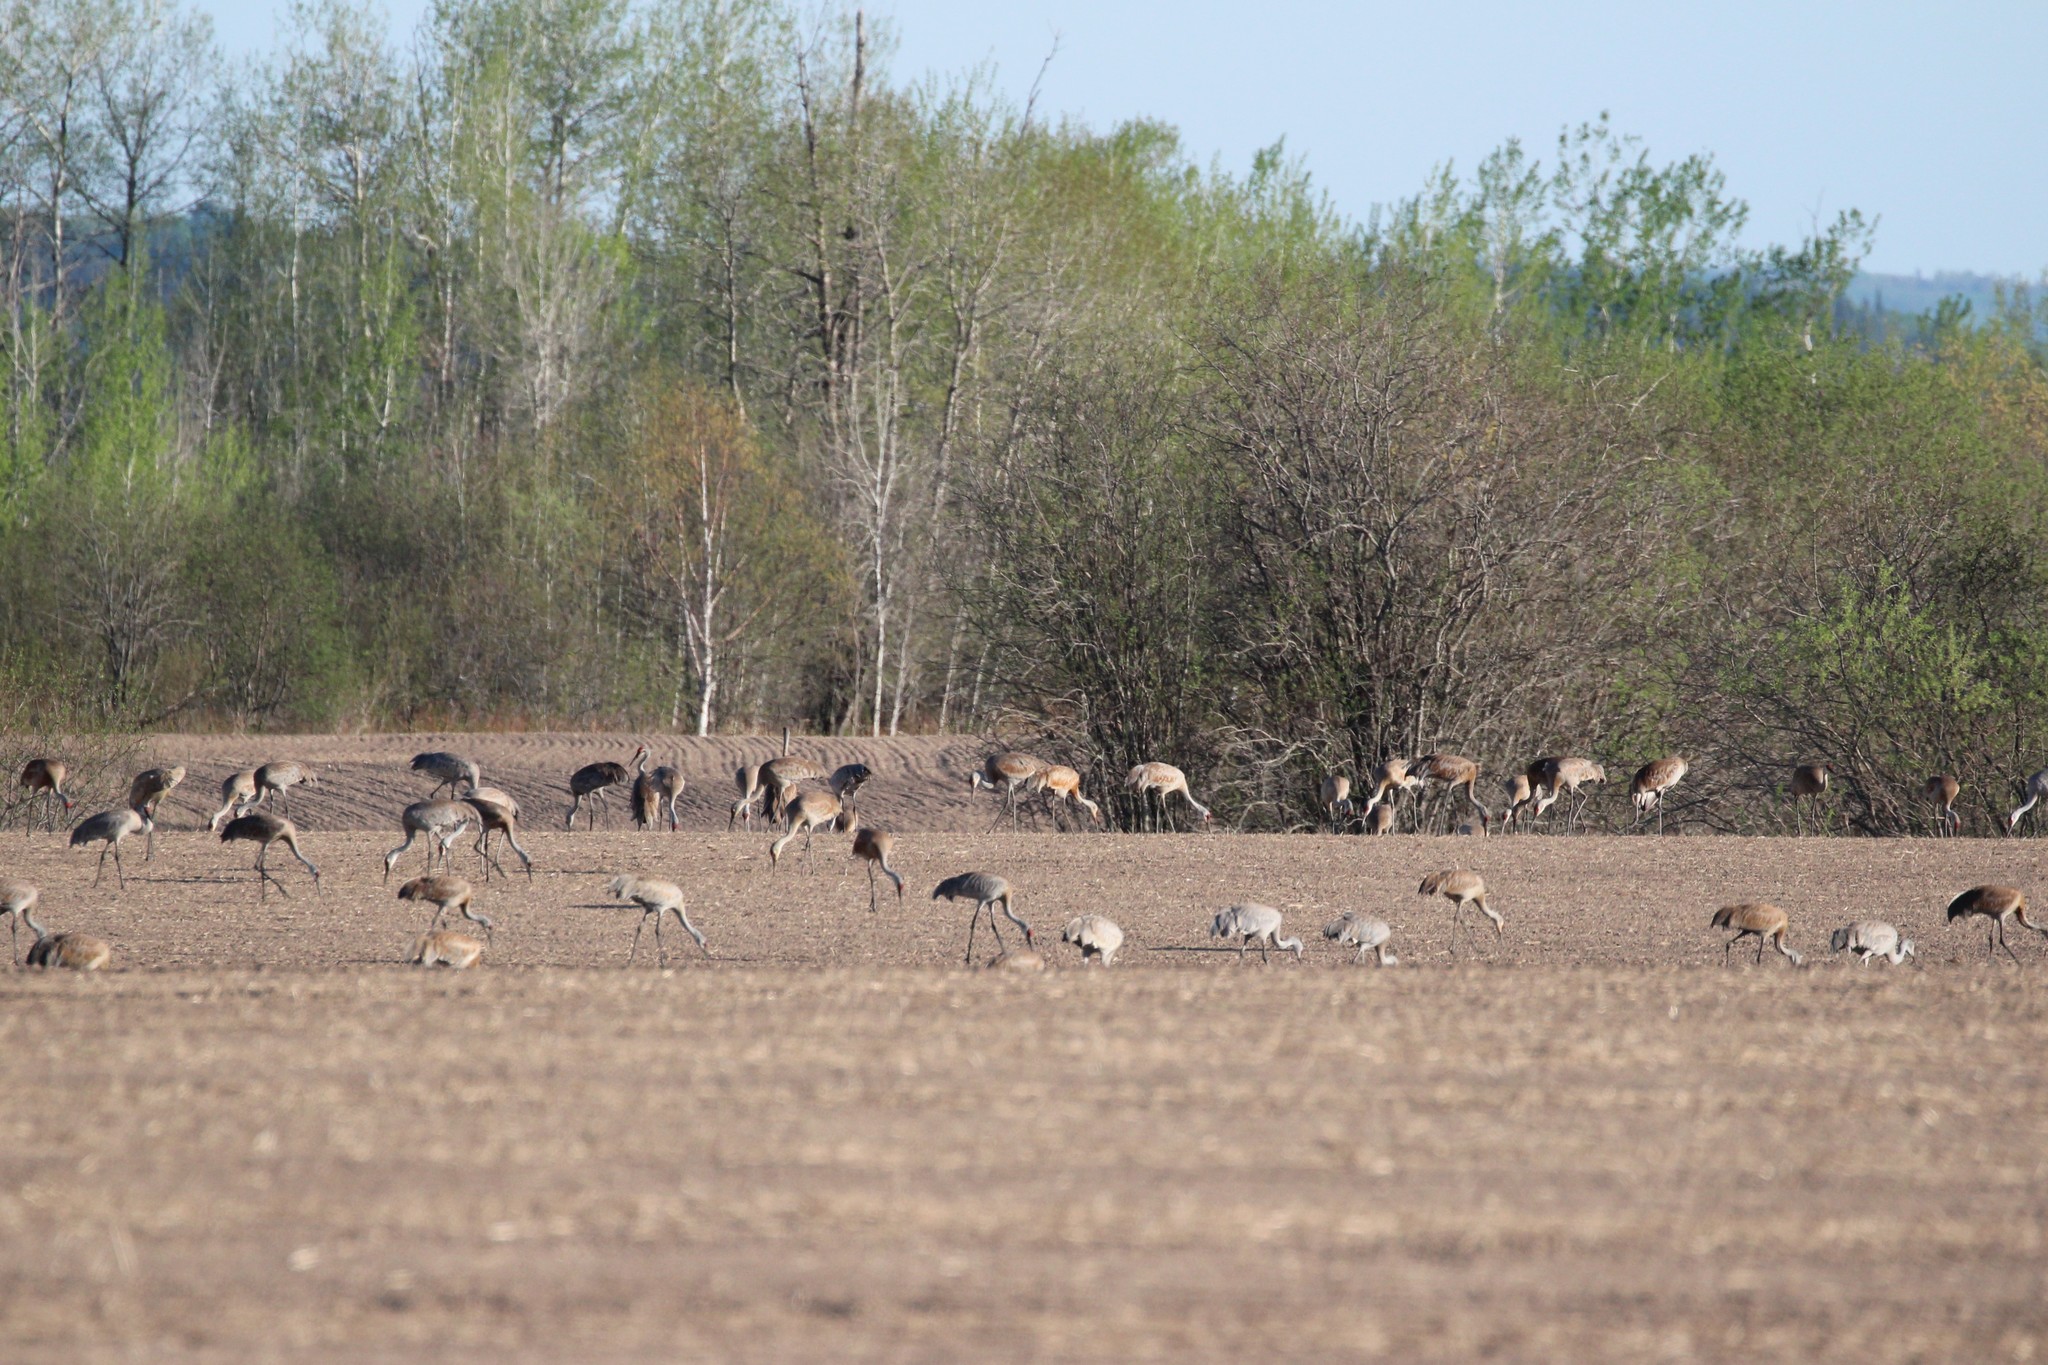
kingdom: Animalia
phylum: Chordata
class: Aves
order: Gruiformes
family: Gruidae
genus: Grus
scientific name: Grus canadensis
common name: Sandhill crane
